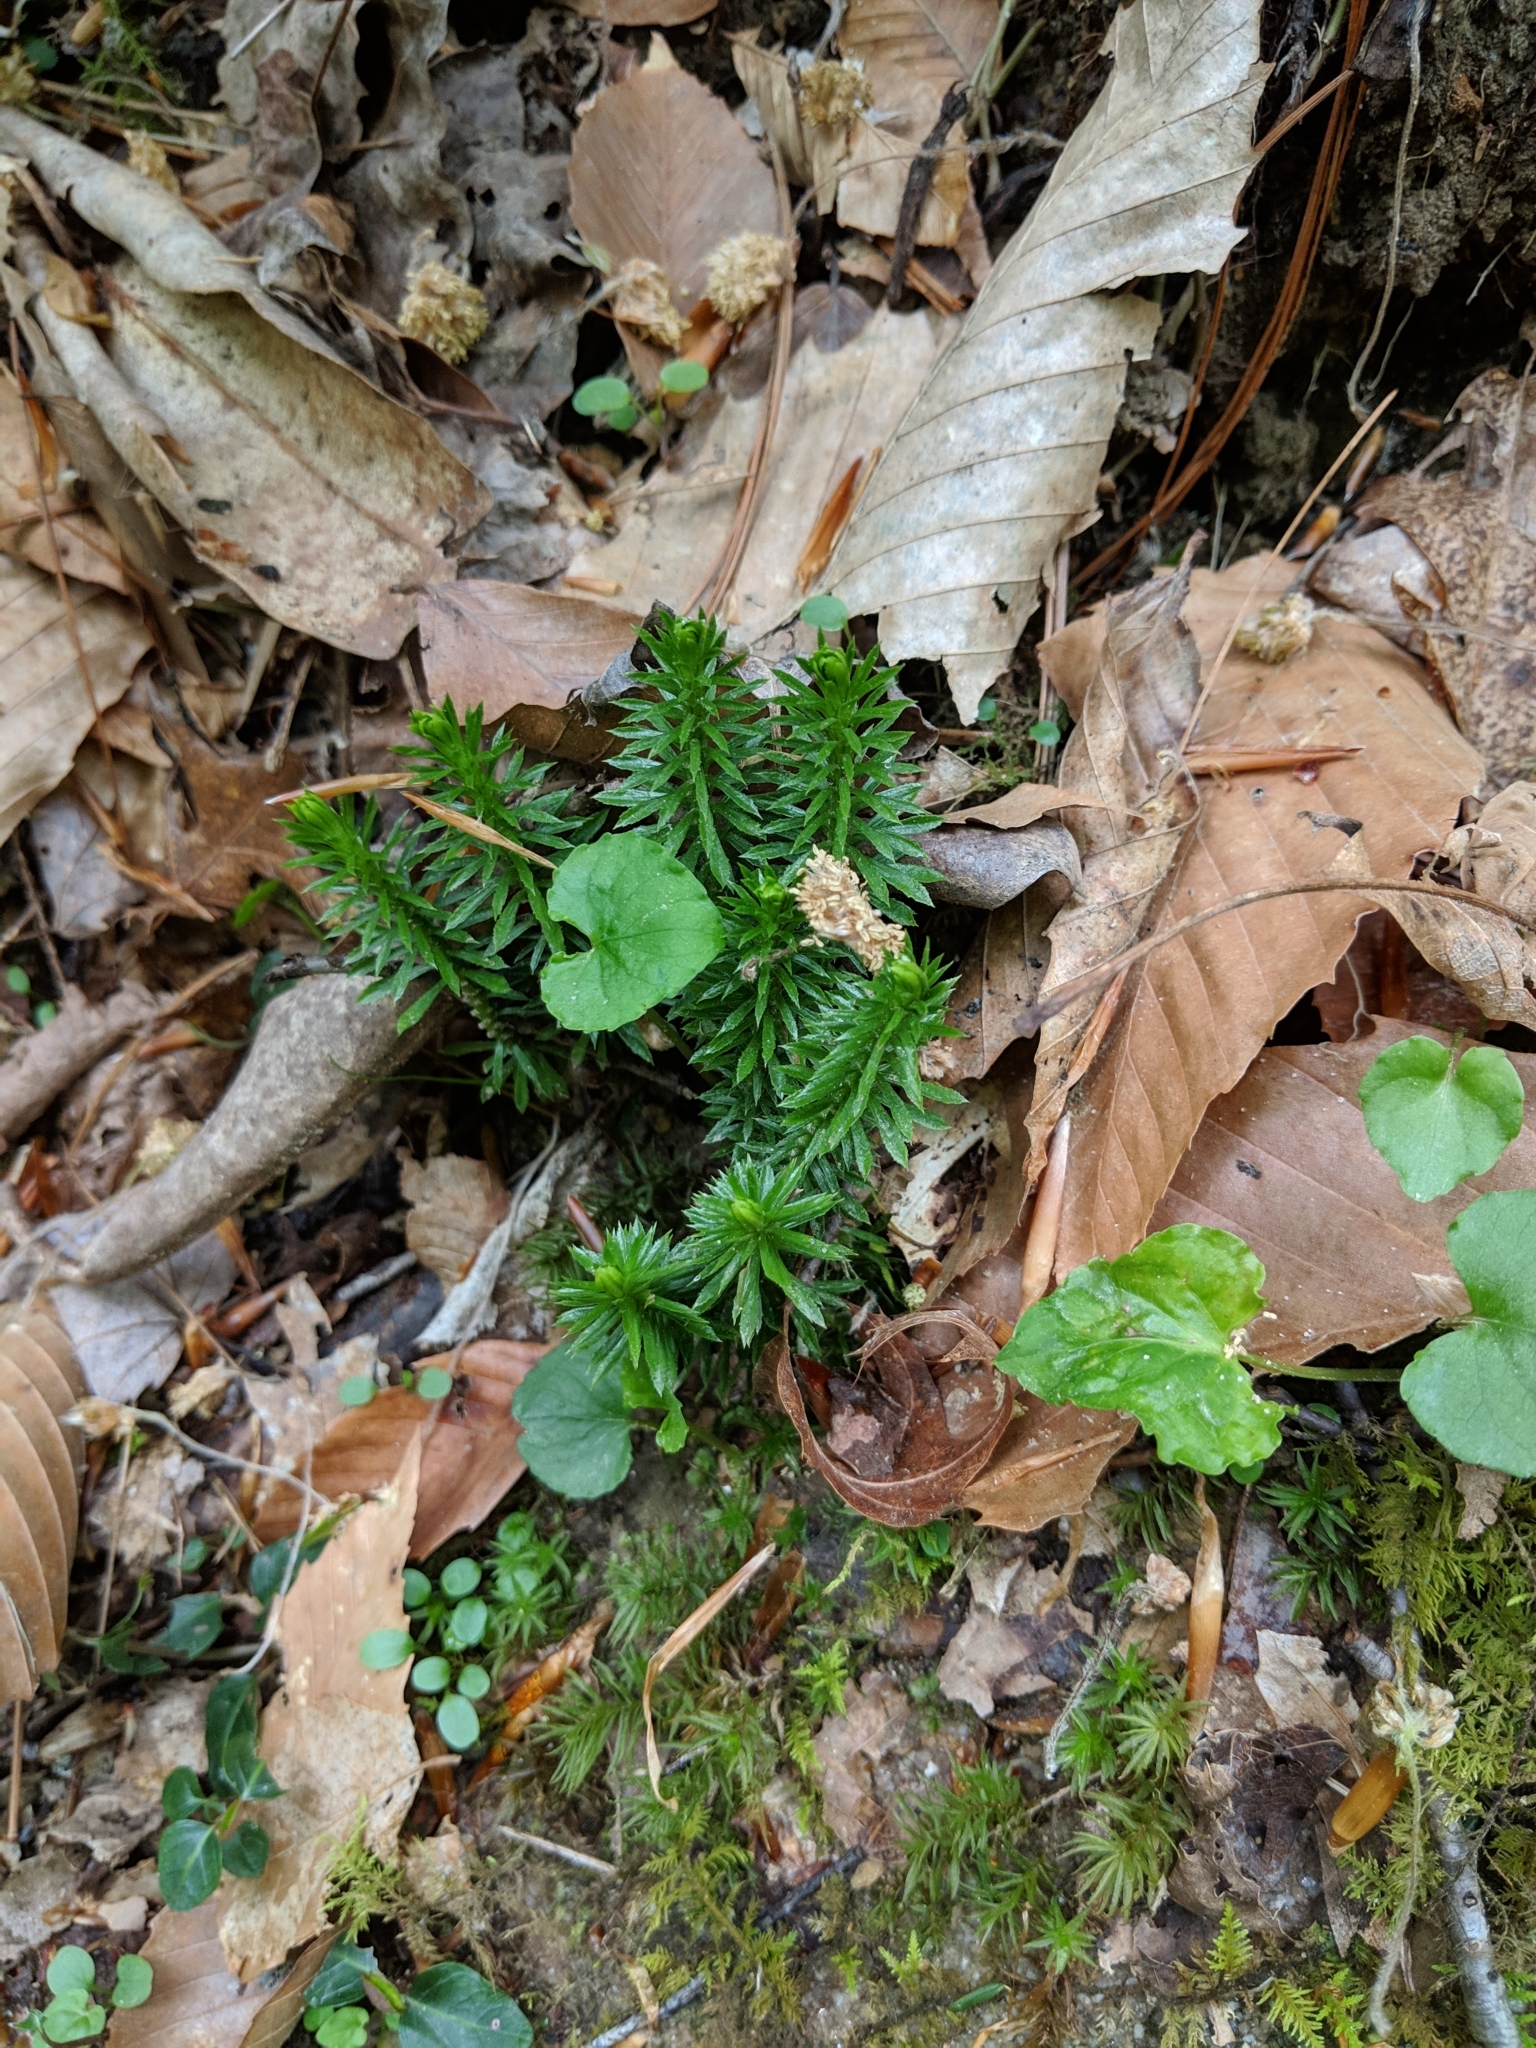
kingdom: Plantae
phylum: Tracheophyta
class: Lycopodiopsida
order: Lycopodiales
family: Lycopodiaceae
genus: Huperzia
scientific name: Huperzia lucidula
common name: Shining clubmoss
